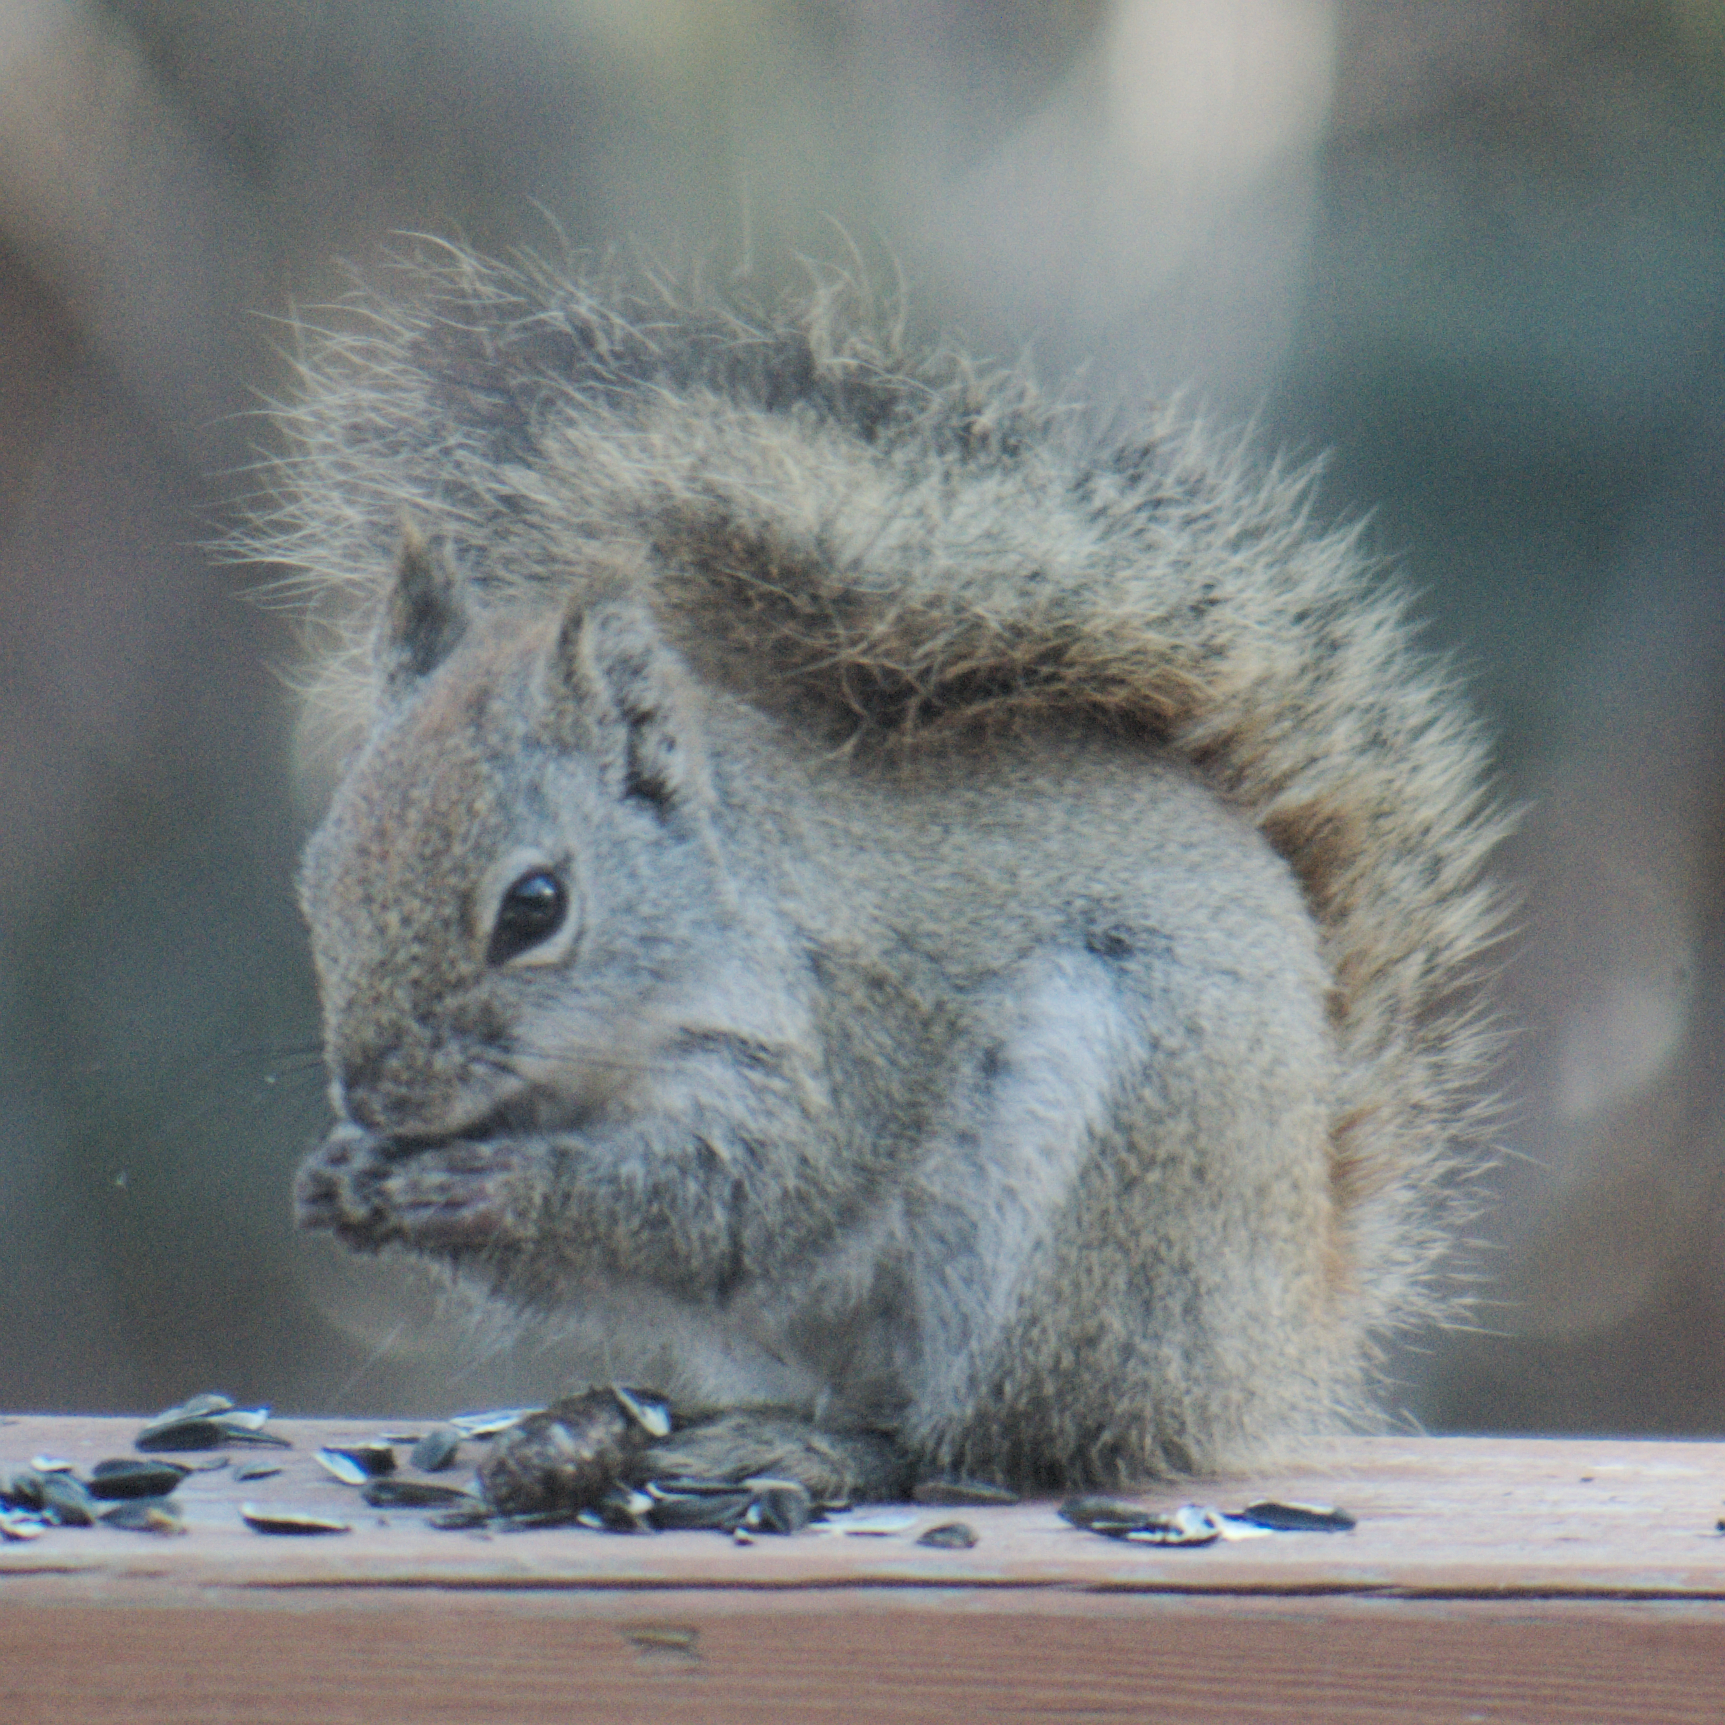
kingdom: Animalia
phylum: Chordata
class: Mammalia
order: Rodentia
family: Sciuridae
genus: Tamiasciurus
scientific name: Tamiasciurus hudsonicus
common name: Red squirrel
